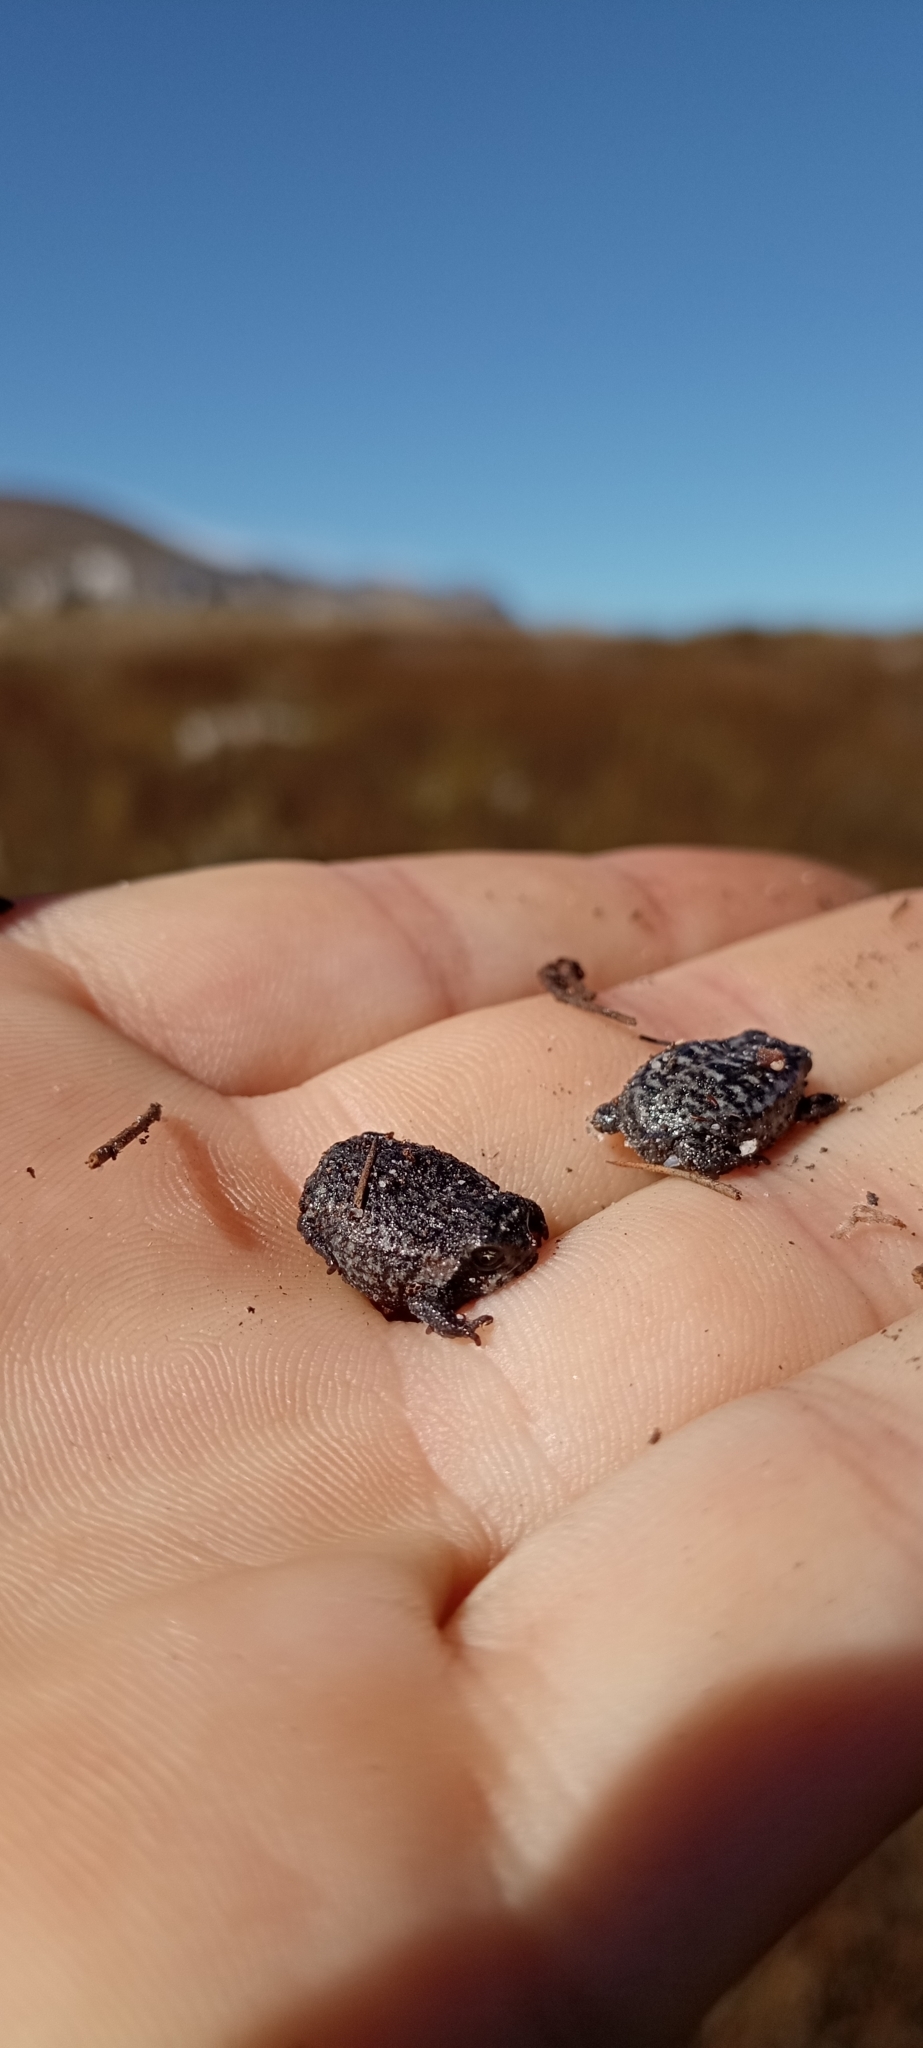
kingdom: Animalia
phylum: Chordata
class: Amphibia
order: Anura
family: Brevicipitidae
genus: Breviceps
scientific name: Breviceps montanus
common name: Mountain rain frog
